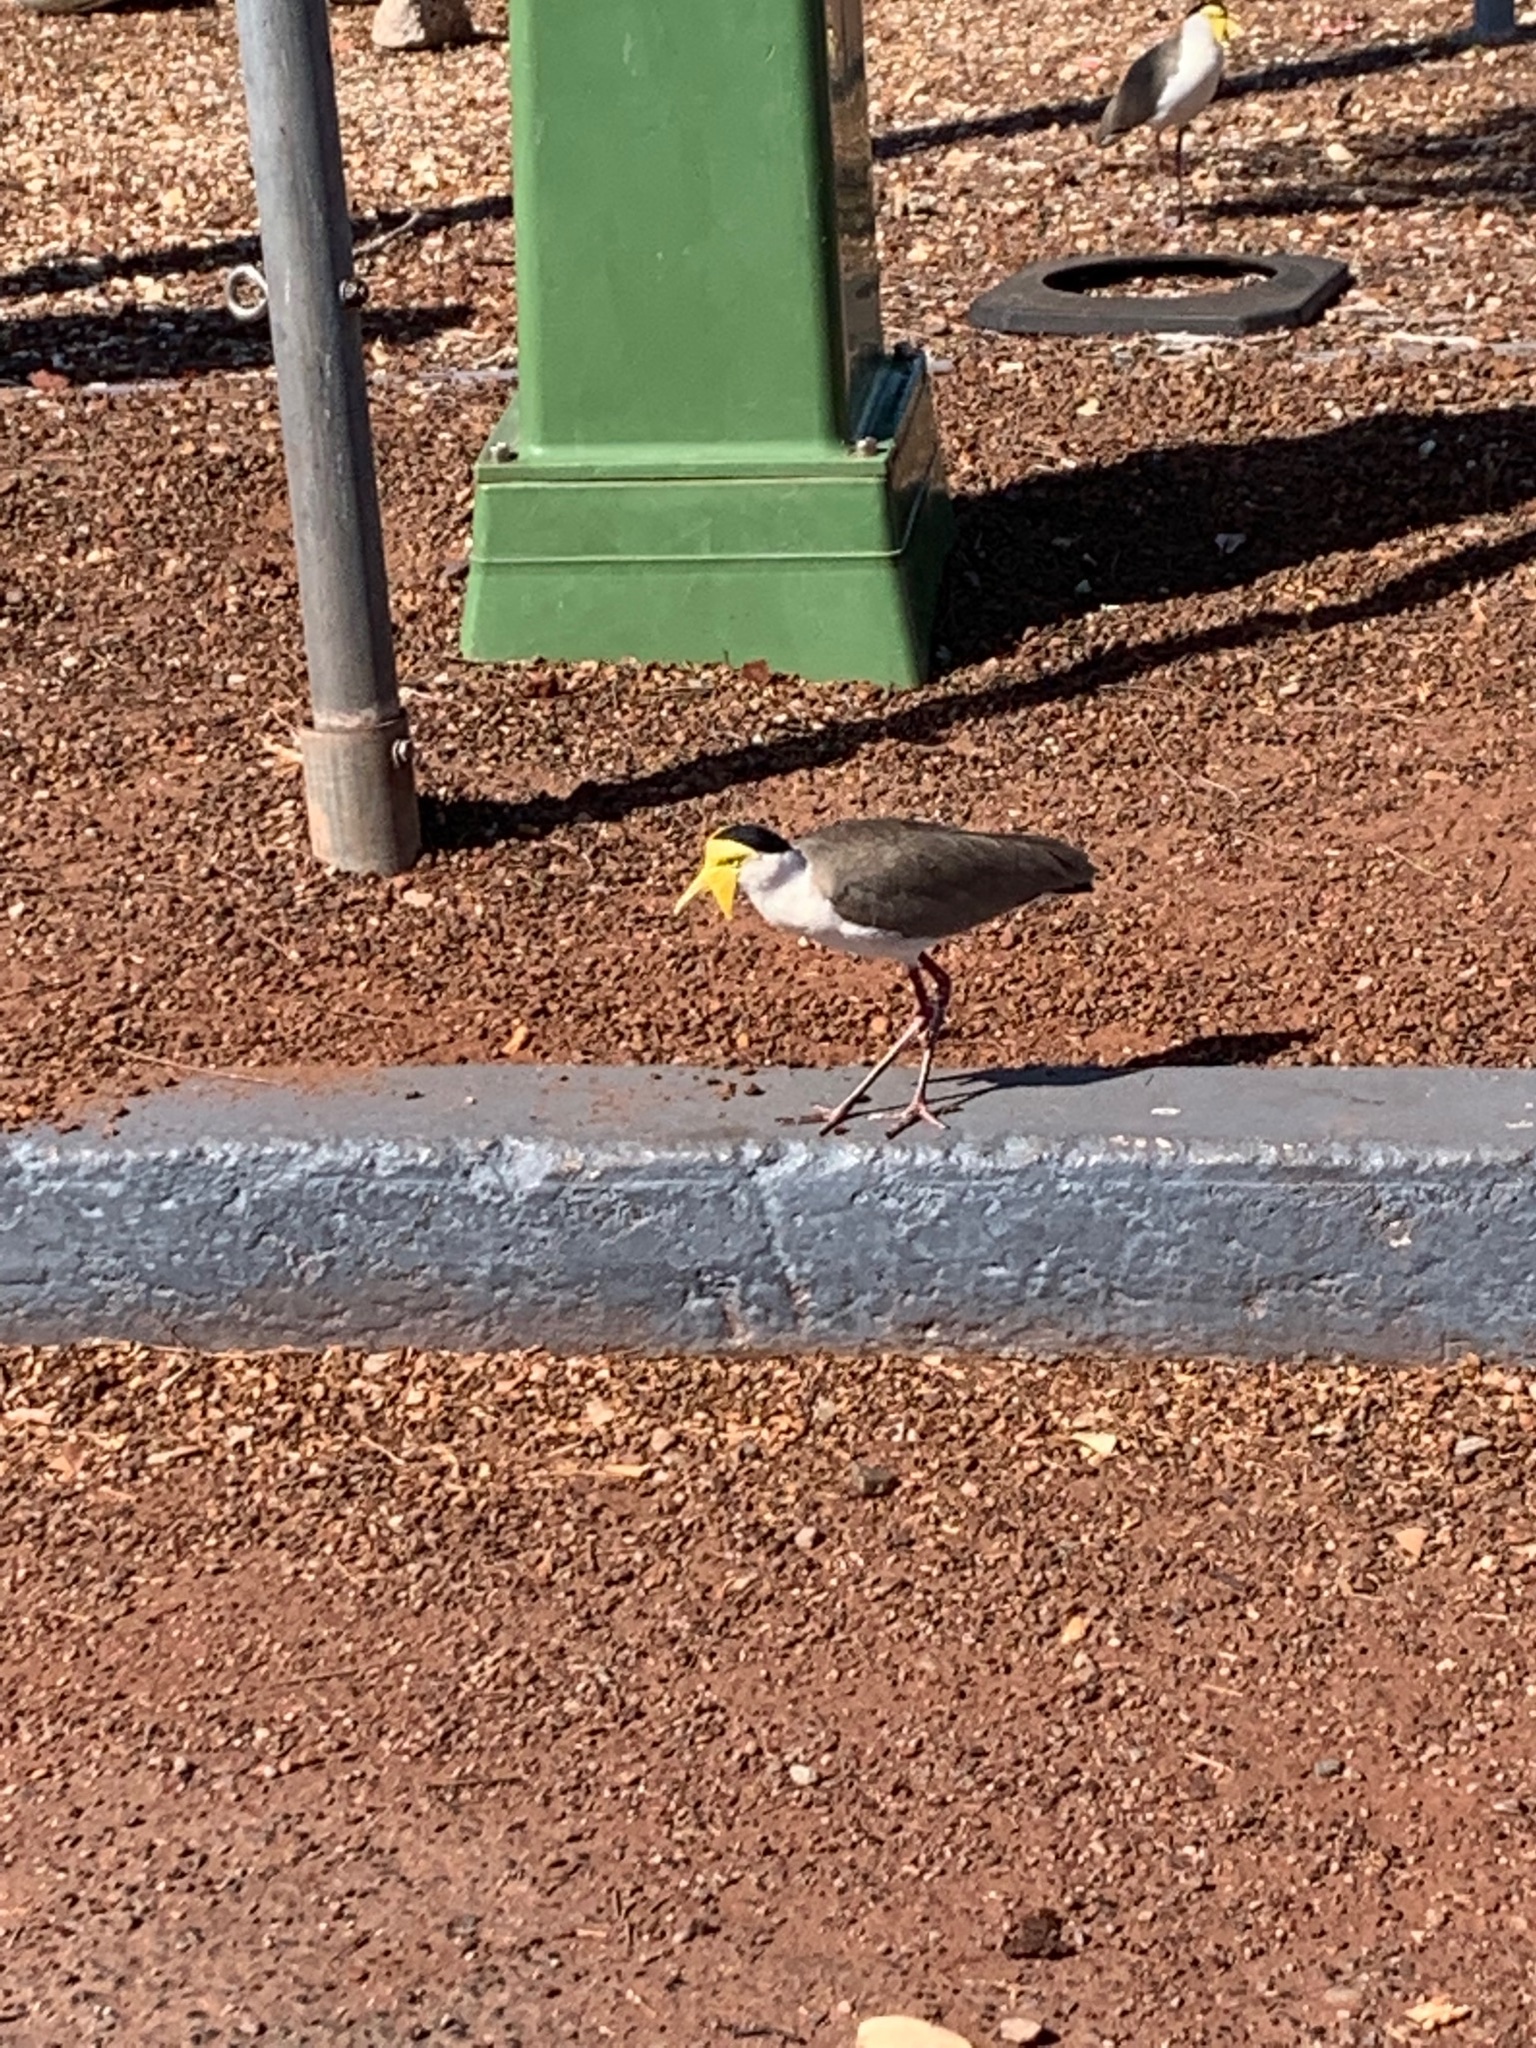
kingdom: Animalia
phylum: Chordata
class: Aves
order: Charadriiformes
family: Charadriidae
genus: Vanellus
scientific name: Vanellus miles
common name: Masked lapwing
